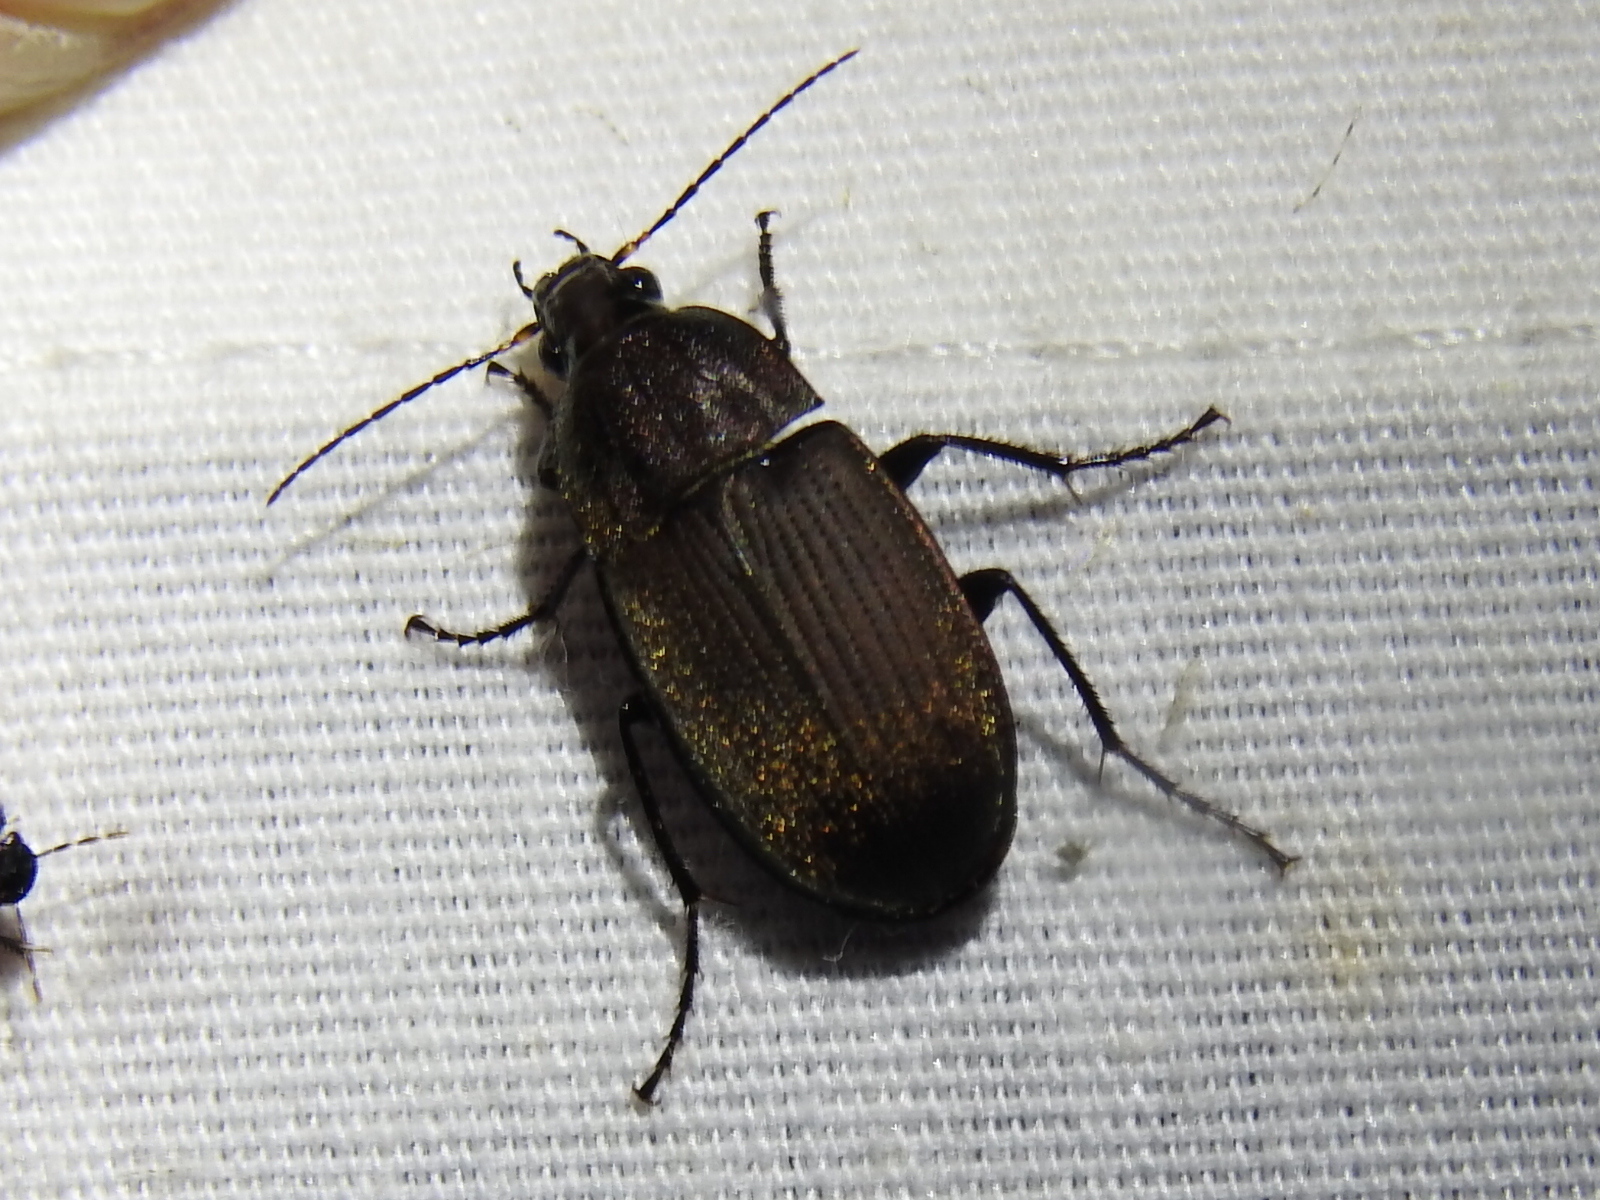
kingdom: Animalia
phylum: Arthropoda
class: Insecta
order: Coleoptera
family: Carabidae
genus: Chlaenius
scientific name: Chlaenius tomentosus
